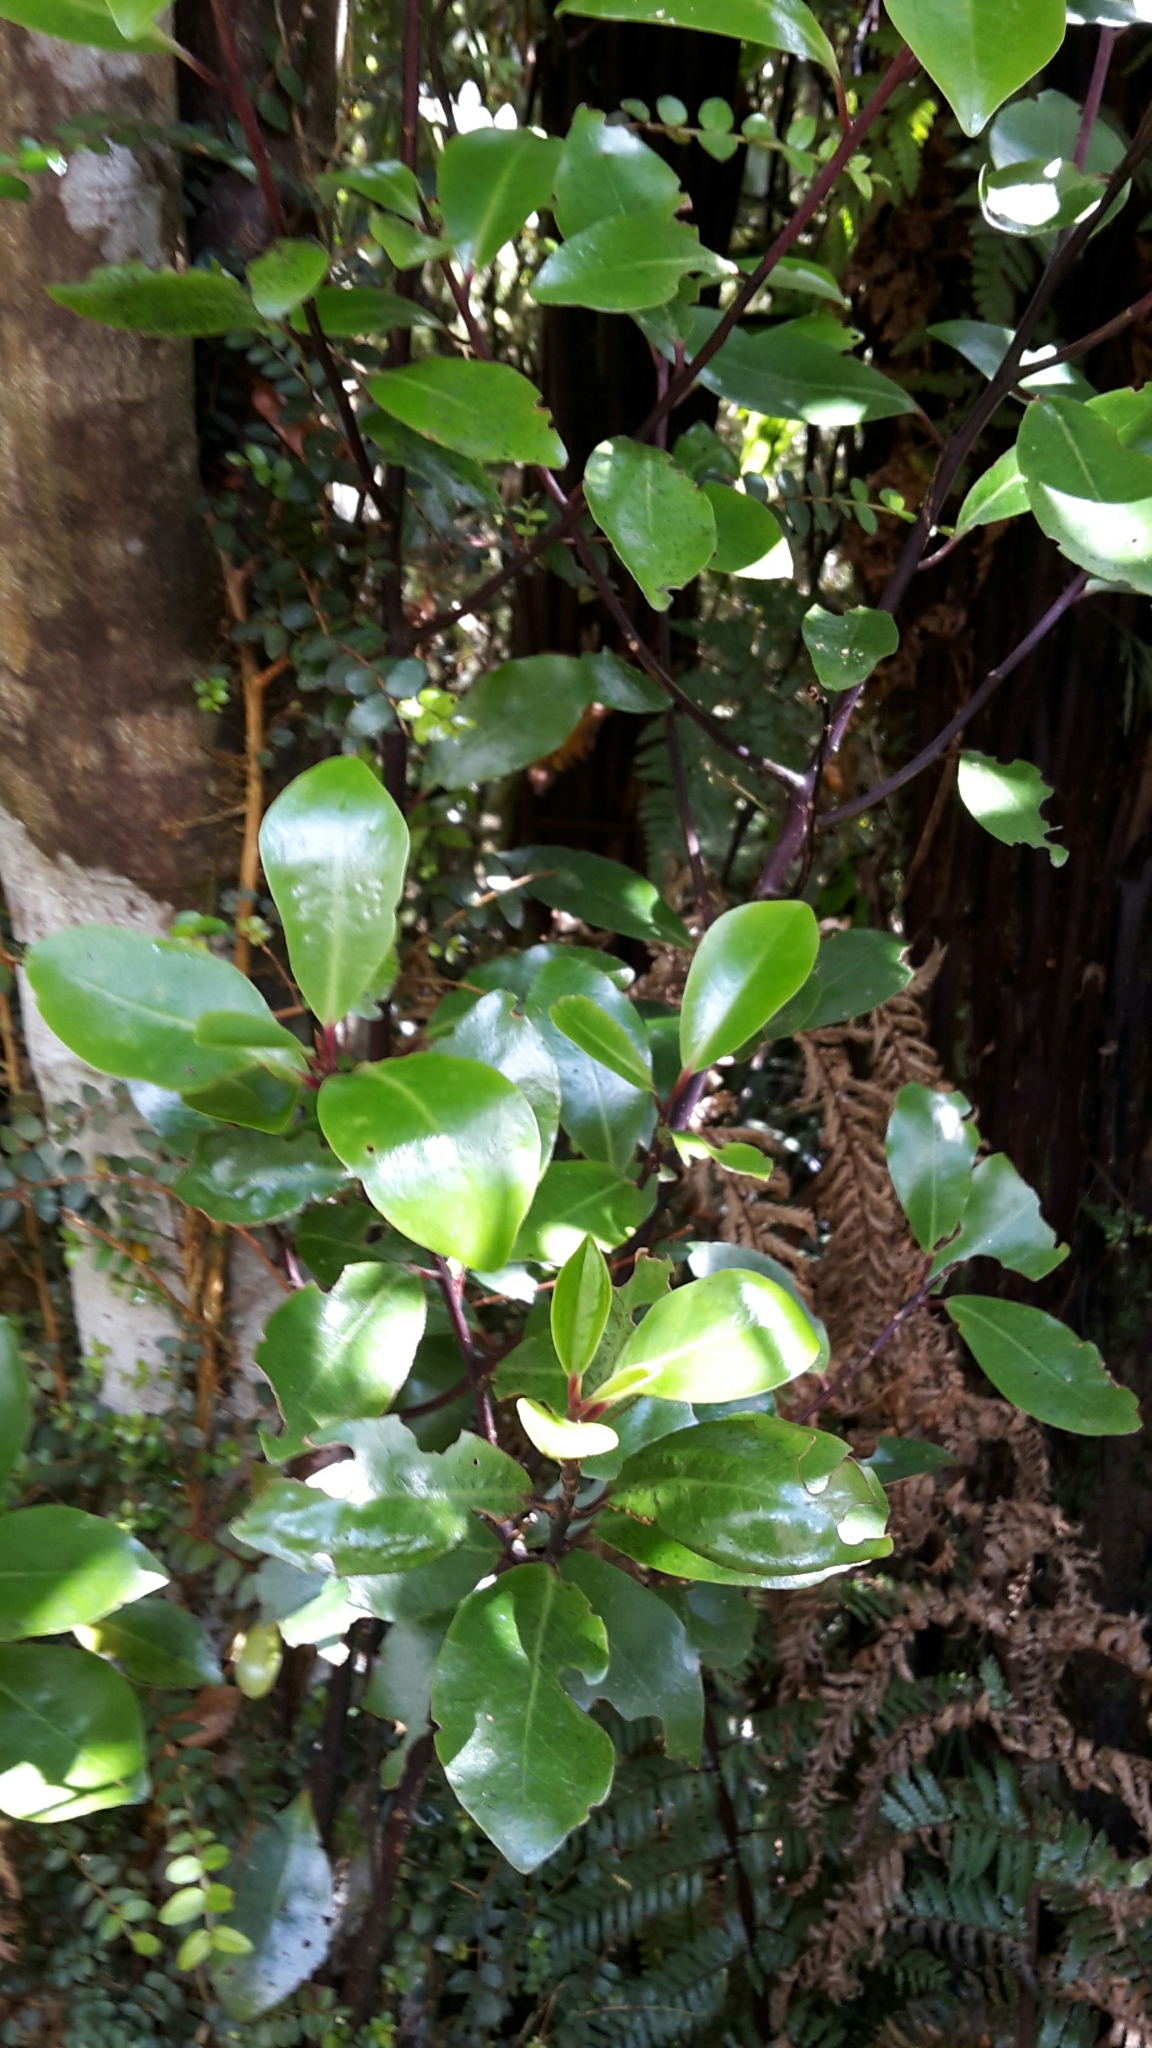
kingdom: Plantae
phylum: Tracheophyta
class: Magnoliopsida
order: Canellales
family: Winteraceae
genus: Pseudowintera
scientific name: Pseudowintera axillaris
